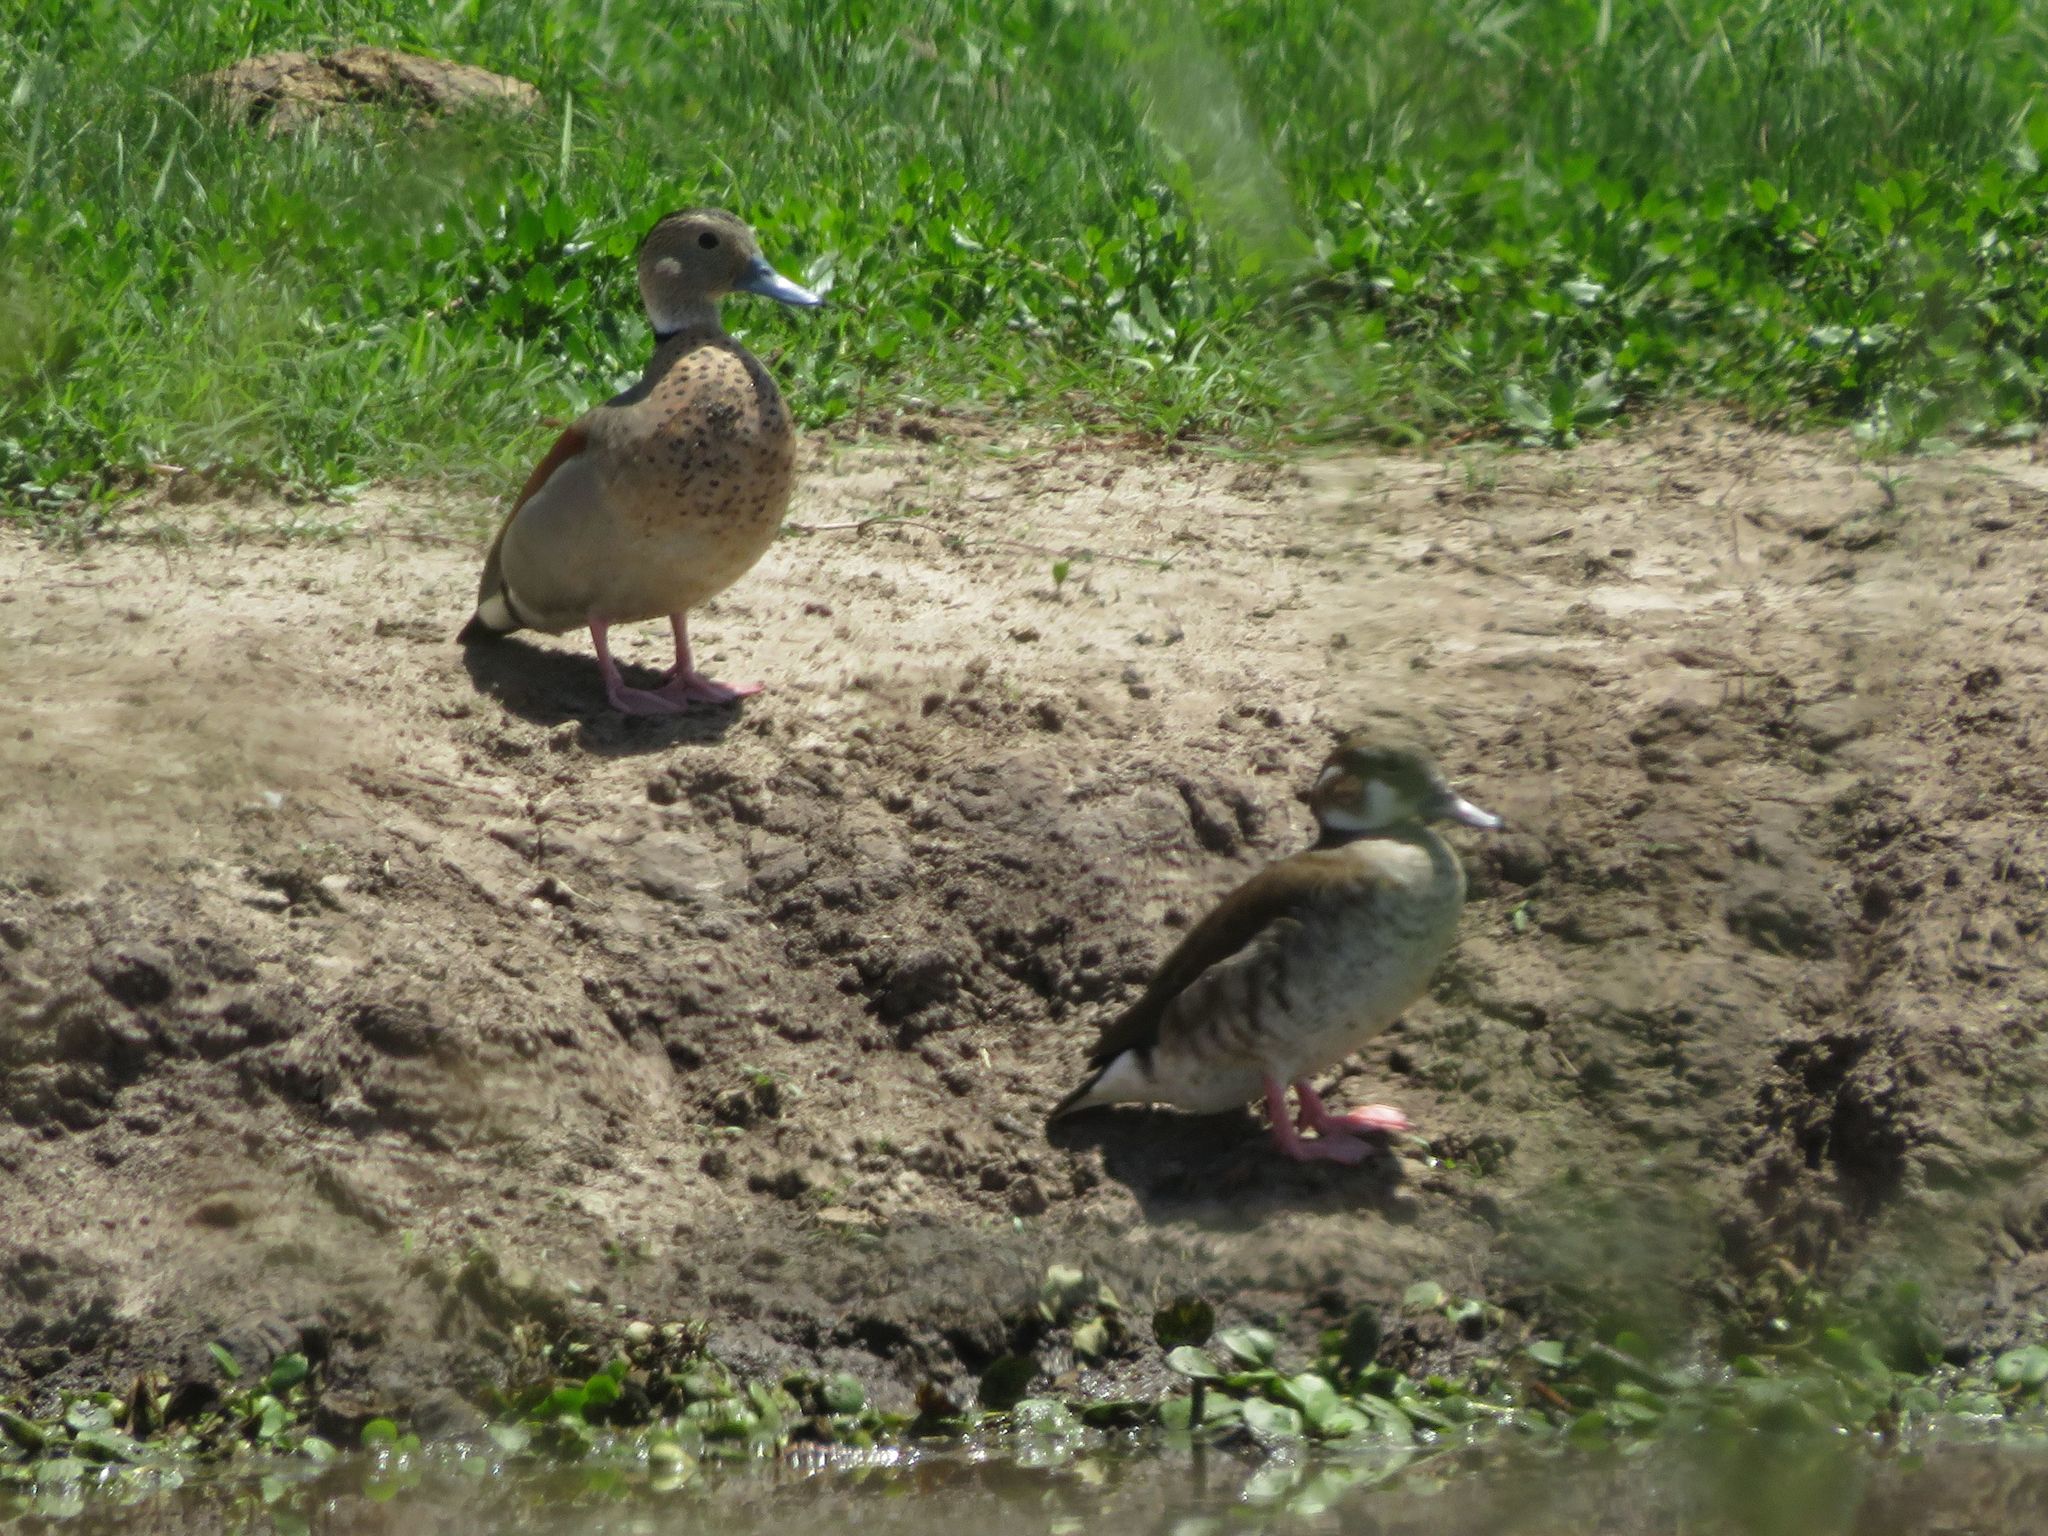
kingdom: Animalia
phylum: Chordata
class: Aves
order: Anseriformes
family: Anatidae
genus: Callonetta
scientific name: Callonetta leucophrys
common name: Ringed teal
